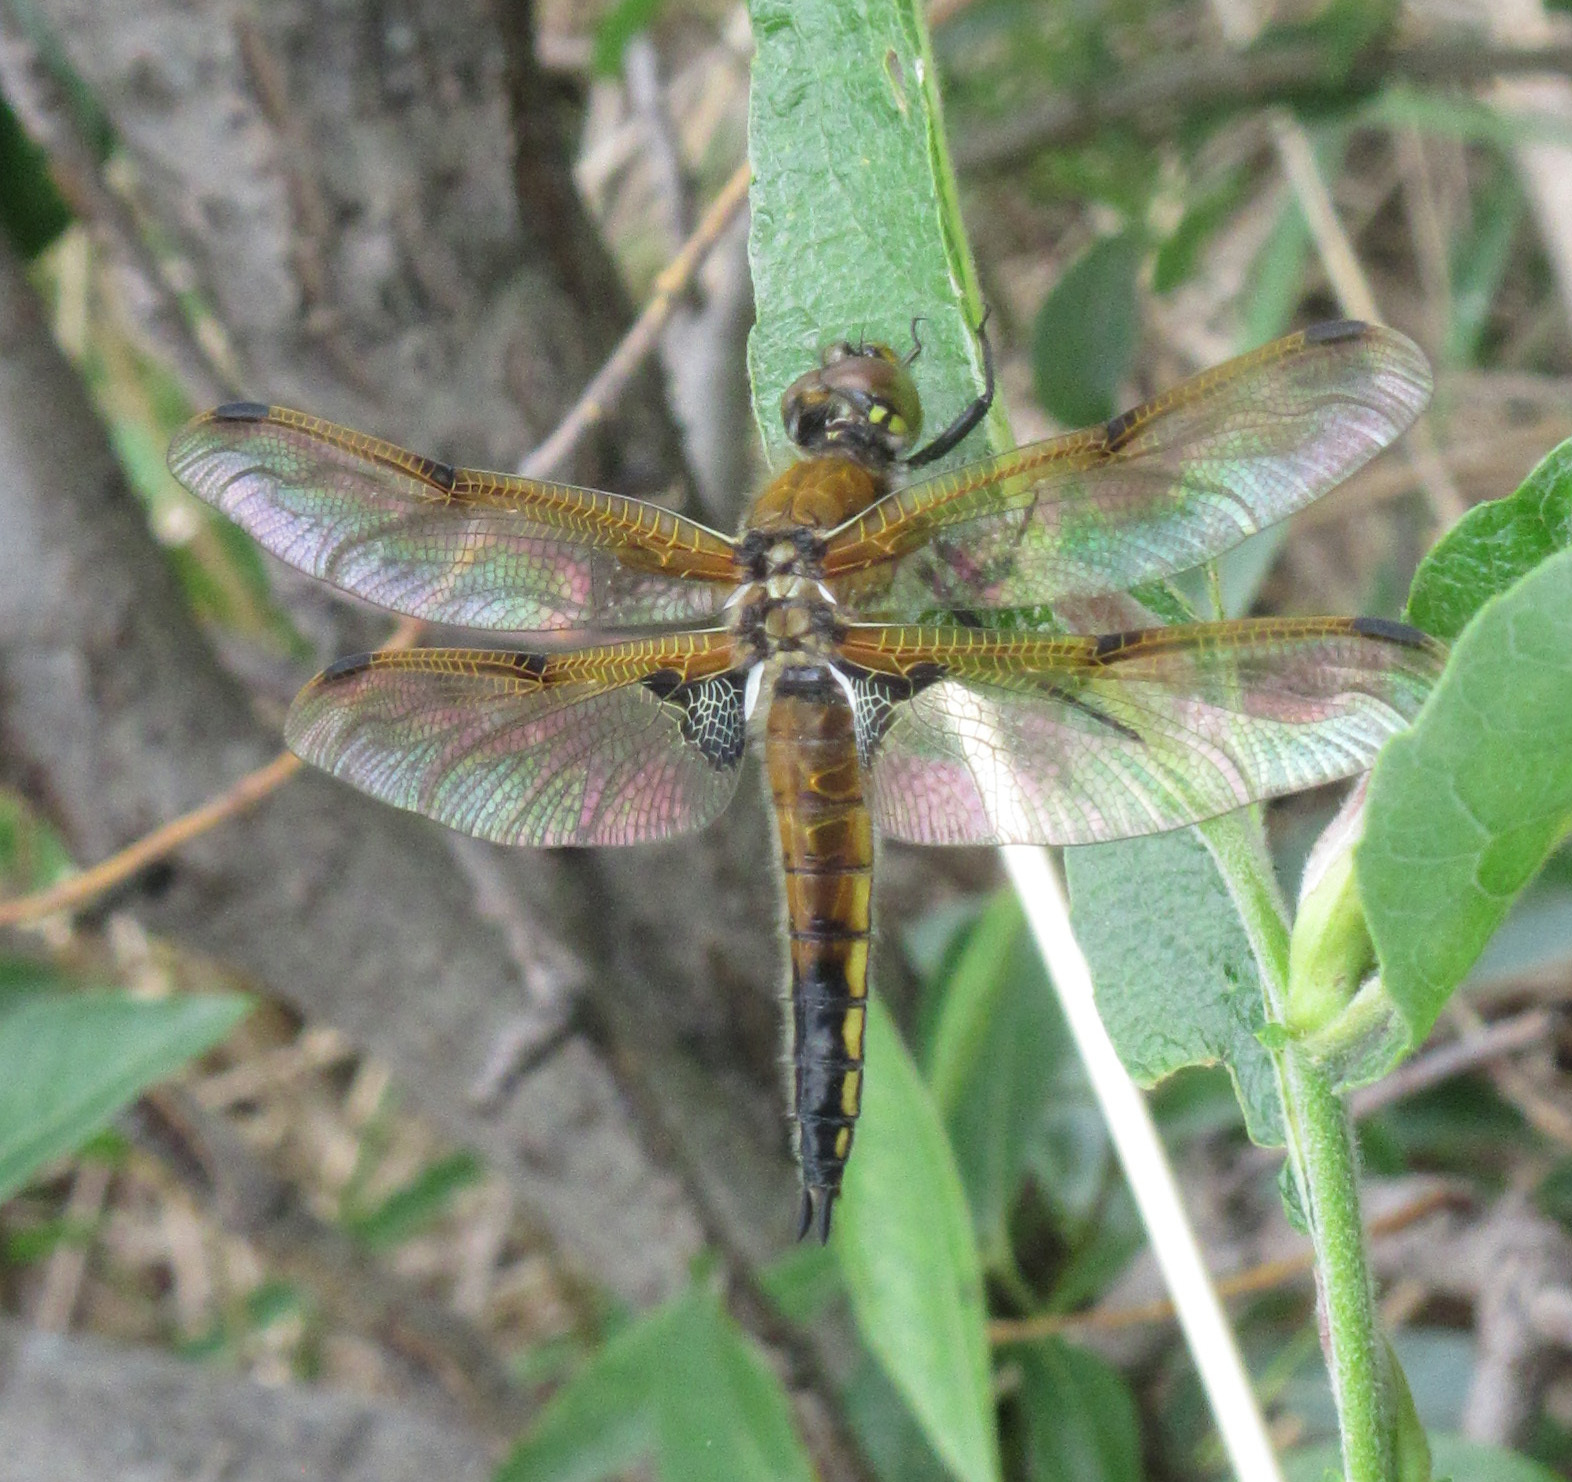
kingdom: Animalia
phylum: Arthropoda
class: Insecta
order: Odonata
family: Libellulidae
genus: Libellula
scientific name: Libellula quadrimaculata
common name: Four-spotted chaser
